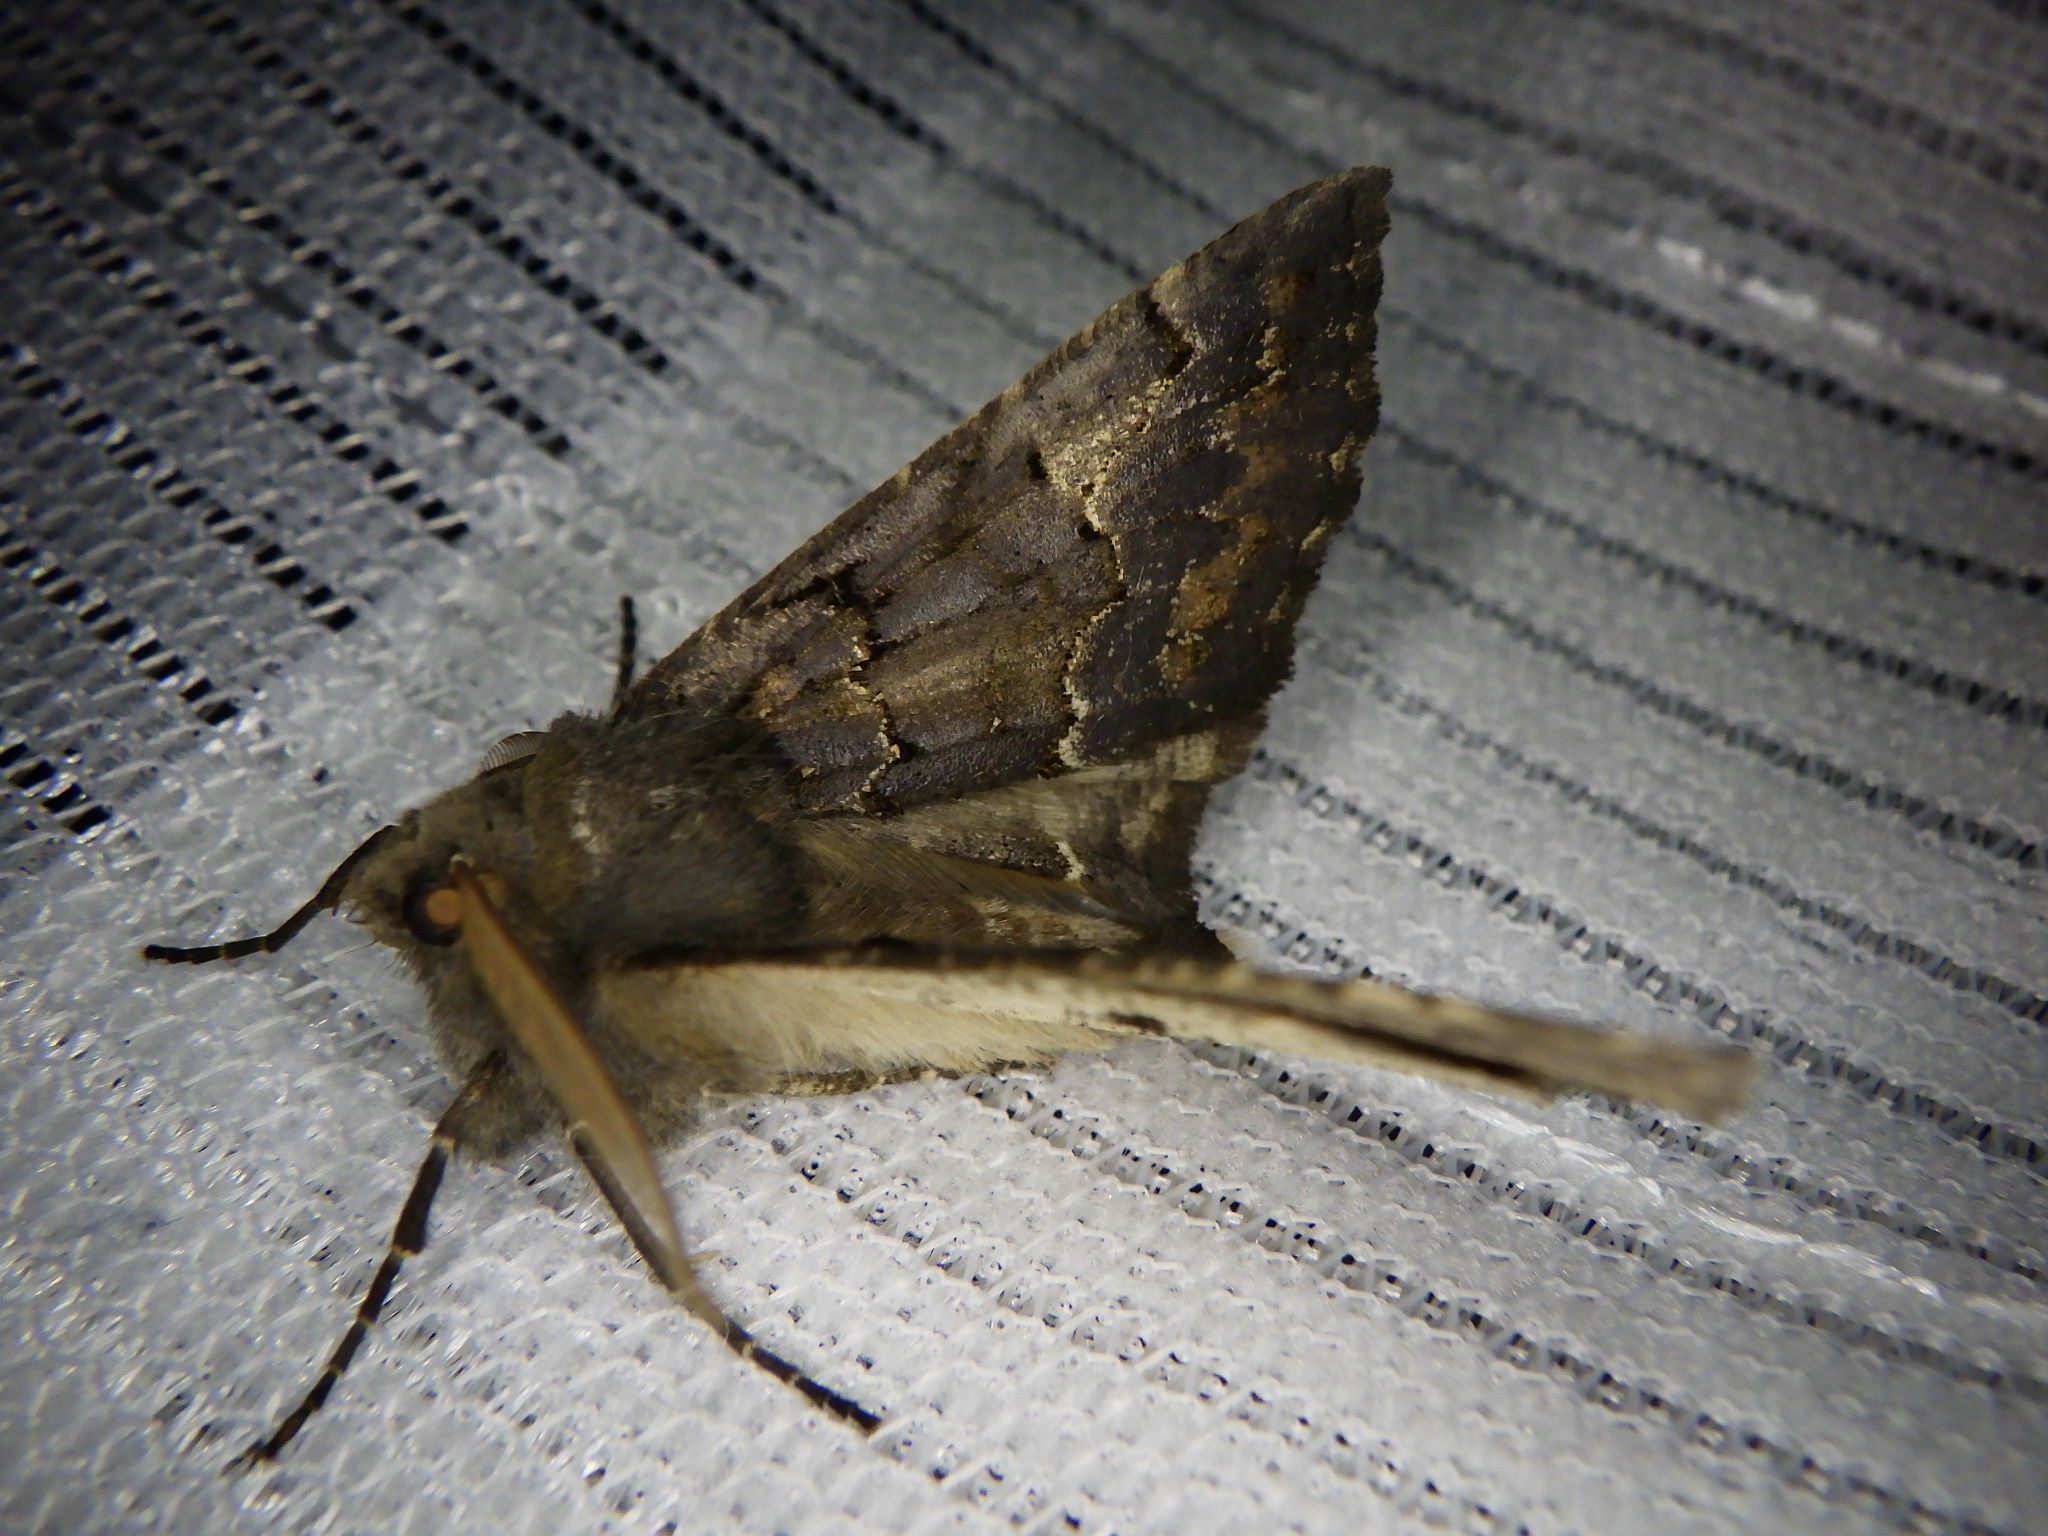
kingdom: Animalia
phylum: Arthropoda
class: Insecta
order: Lepidoptera
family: Geometridae
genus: Pachyligia
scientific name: Pachyligia dolosa
